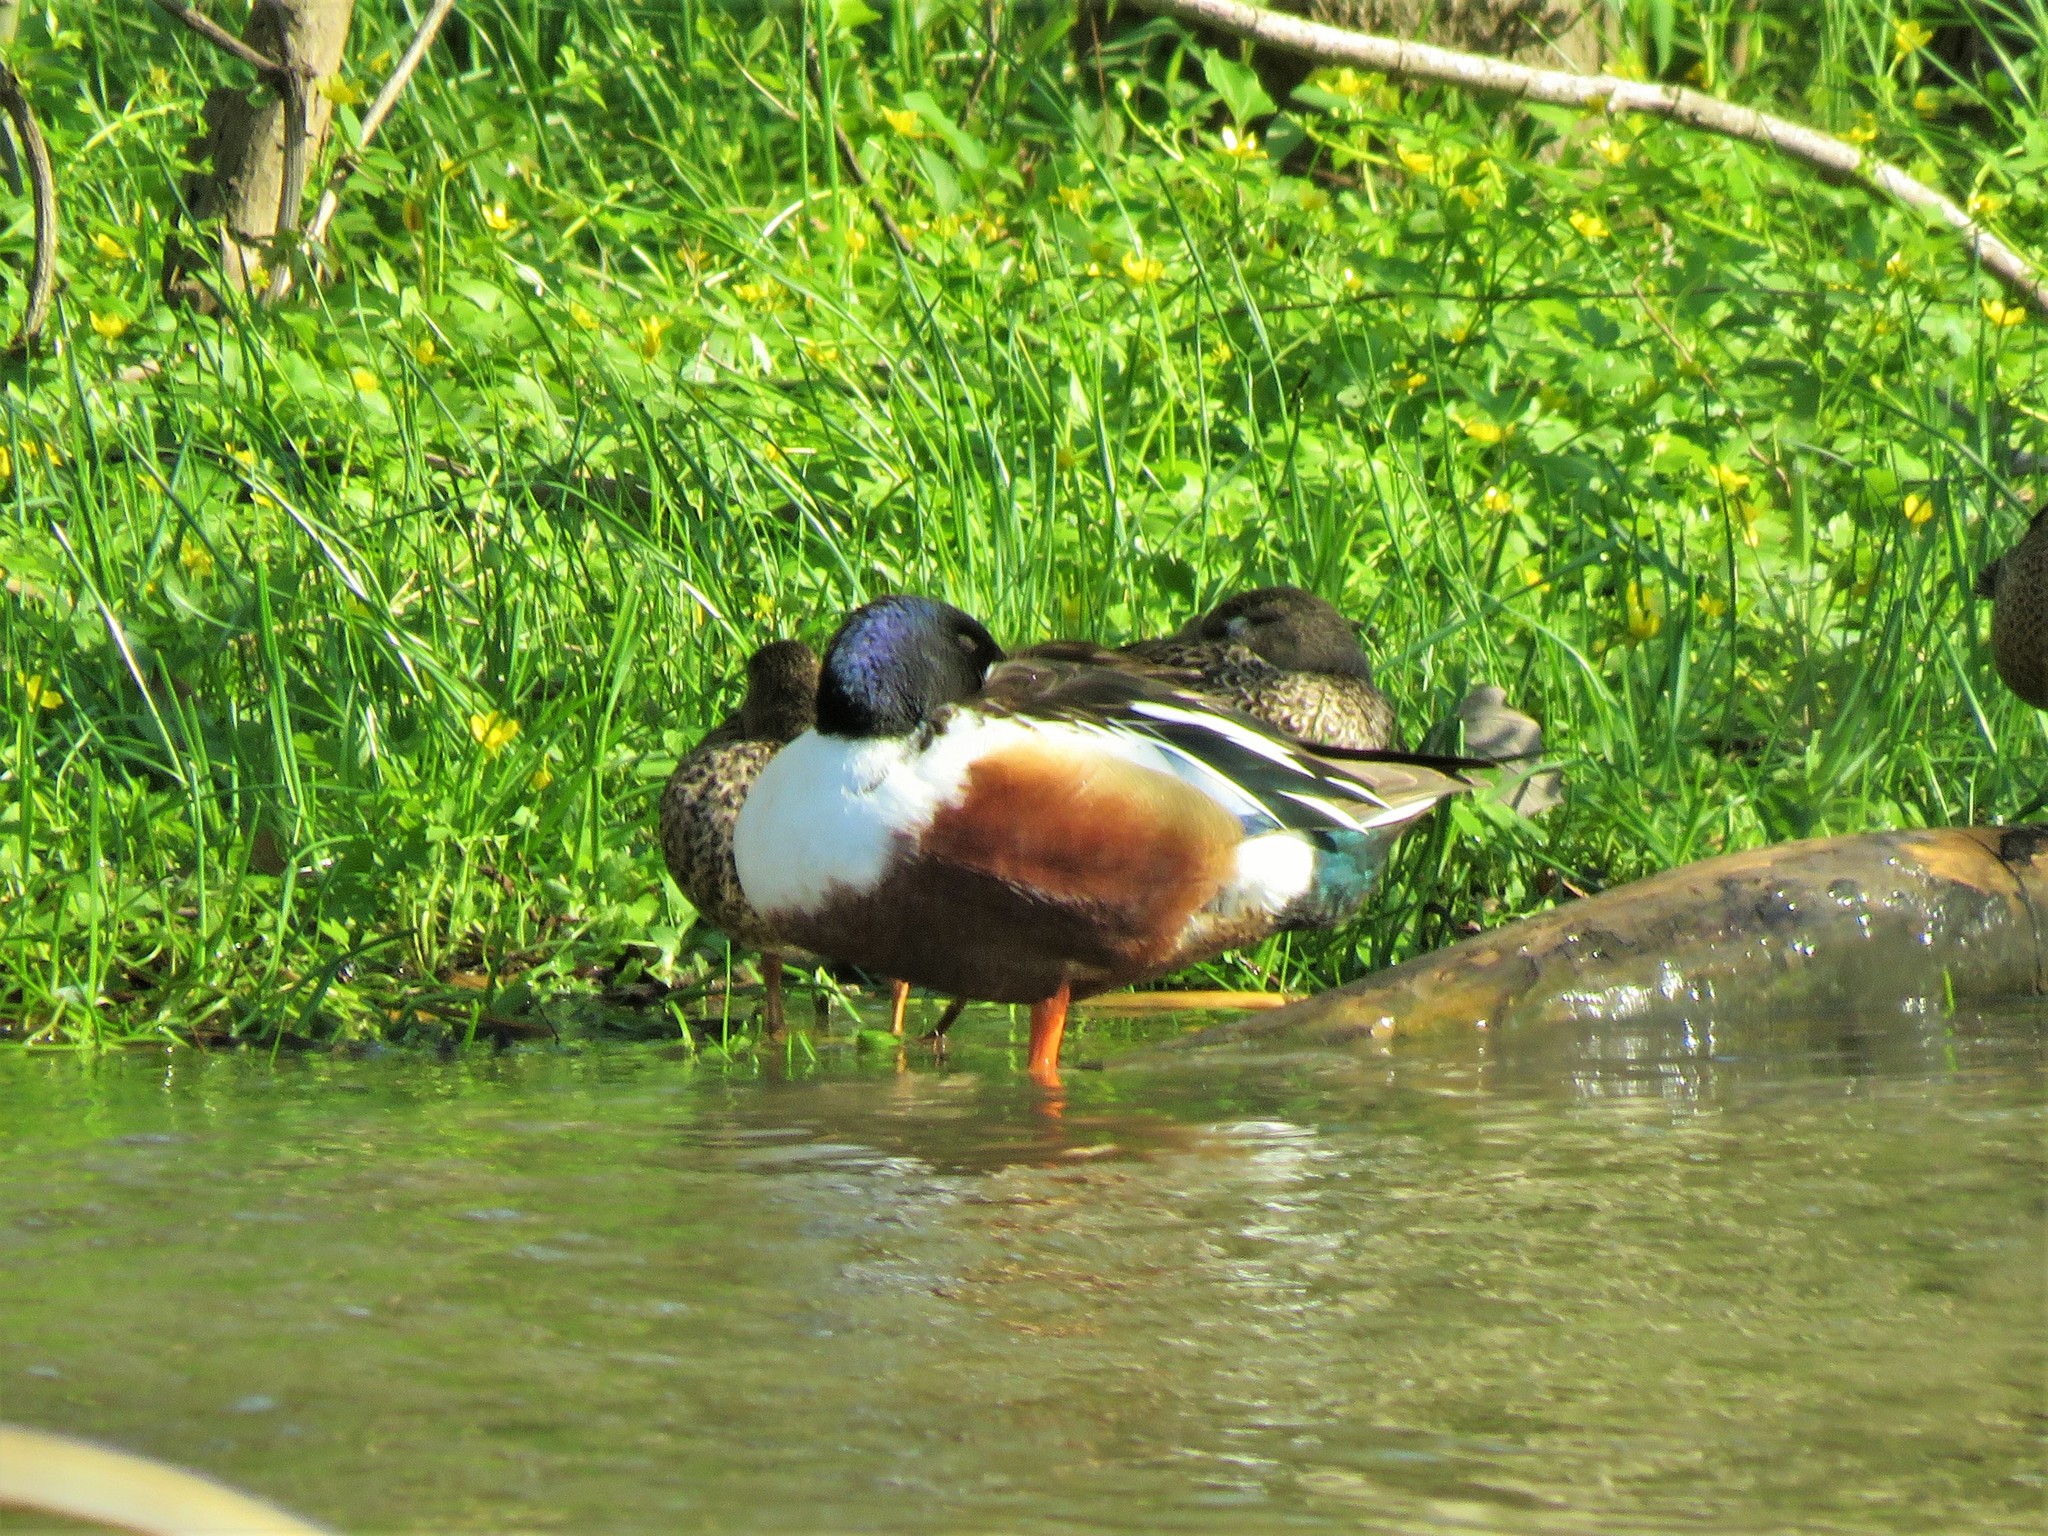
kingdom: Animalia
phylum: Chordata
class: Aves
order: Anseriformes
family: Anatidae
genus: Spatula
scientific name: Spatula clypeata
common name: Northern shoveler
